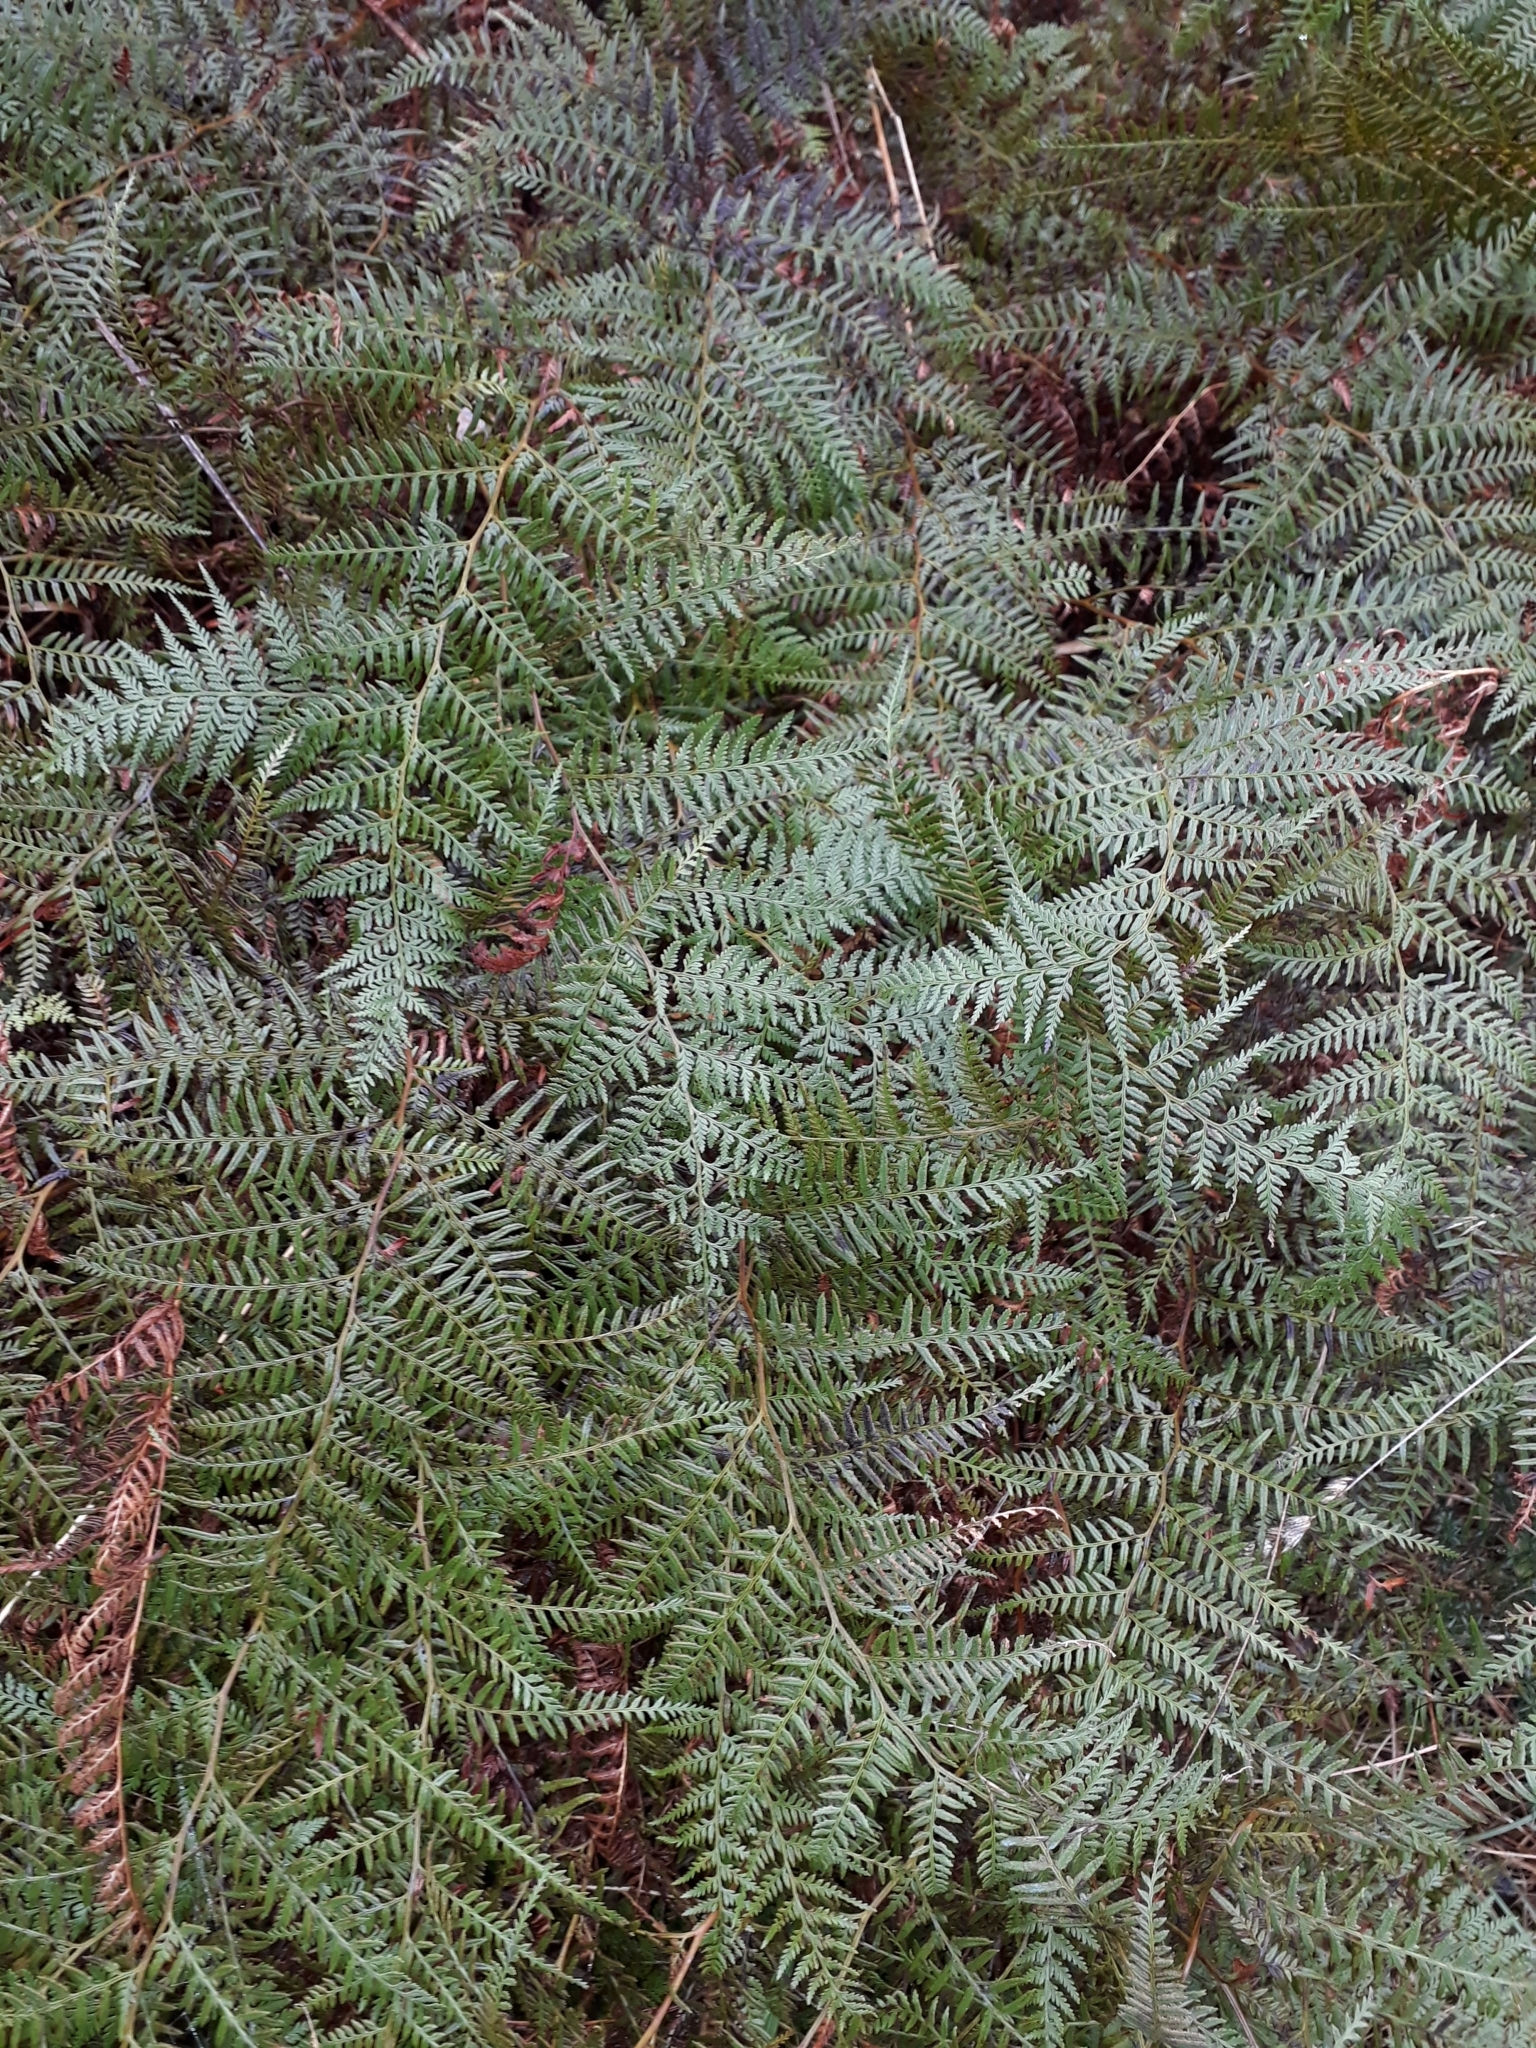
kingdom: Plantae
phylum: Tracheophyta
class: Polypodiopsida
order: Polypodiales
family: Dennstaedtiaceae
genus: Paesia
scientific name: Paesia scaberula
